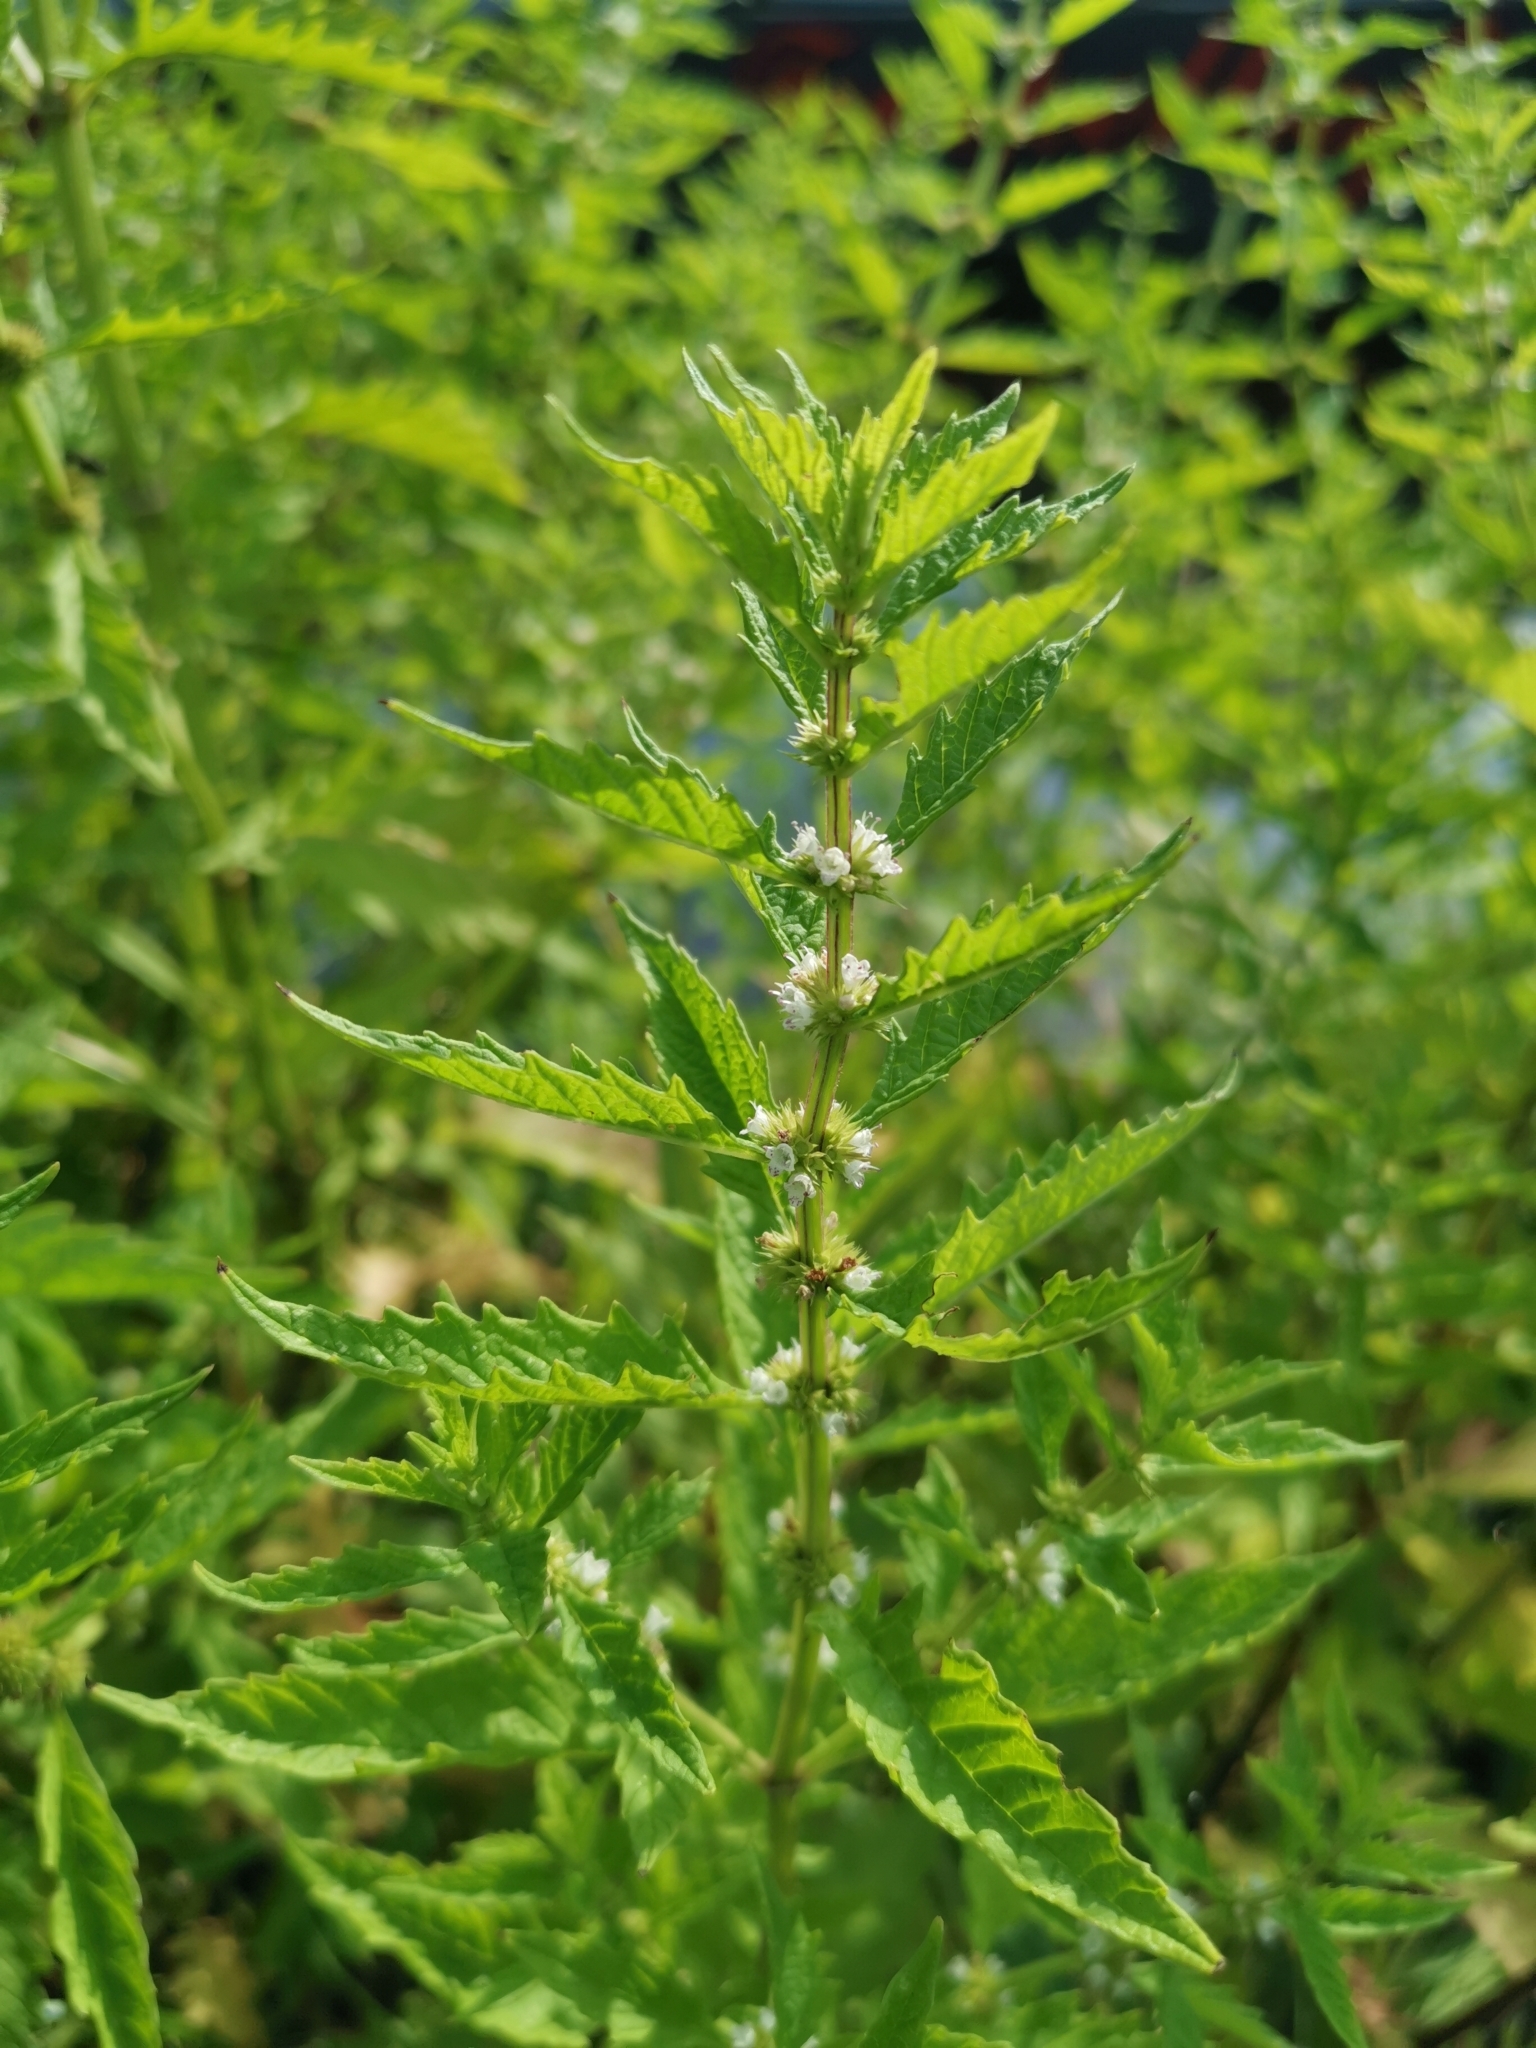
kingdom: Plantae
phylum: Tracheophyta
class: Magnoliopsida
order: Lamiales
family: Lamiaceae
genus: Lycopus
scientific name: Lycopus europaeus
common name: European bugleweed
